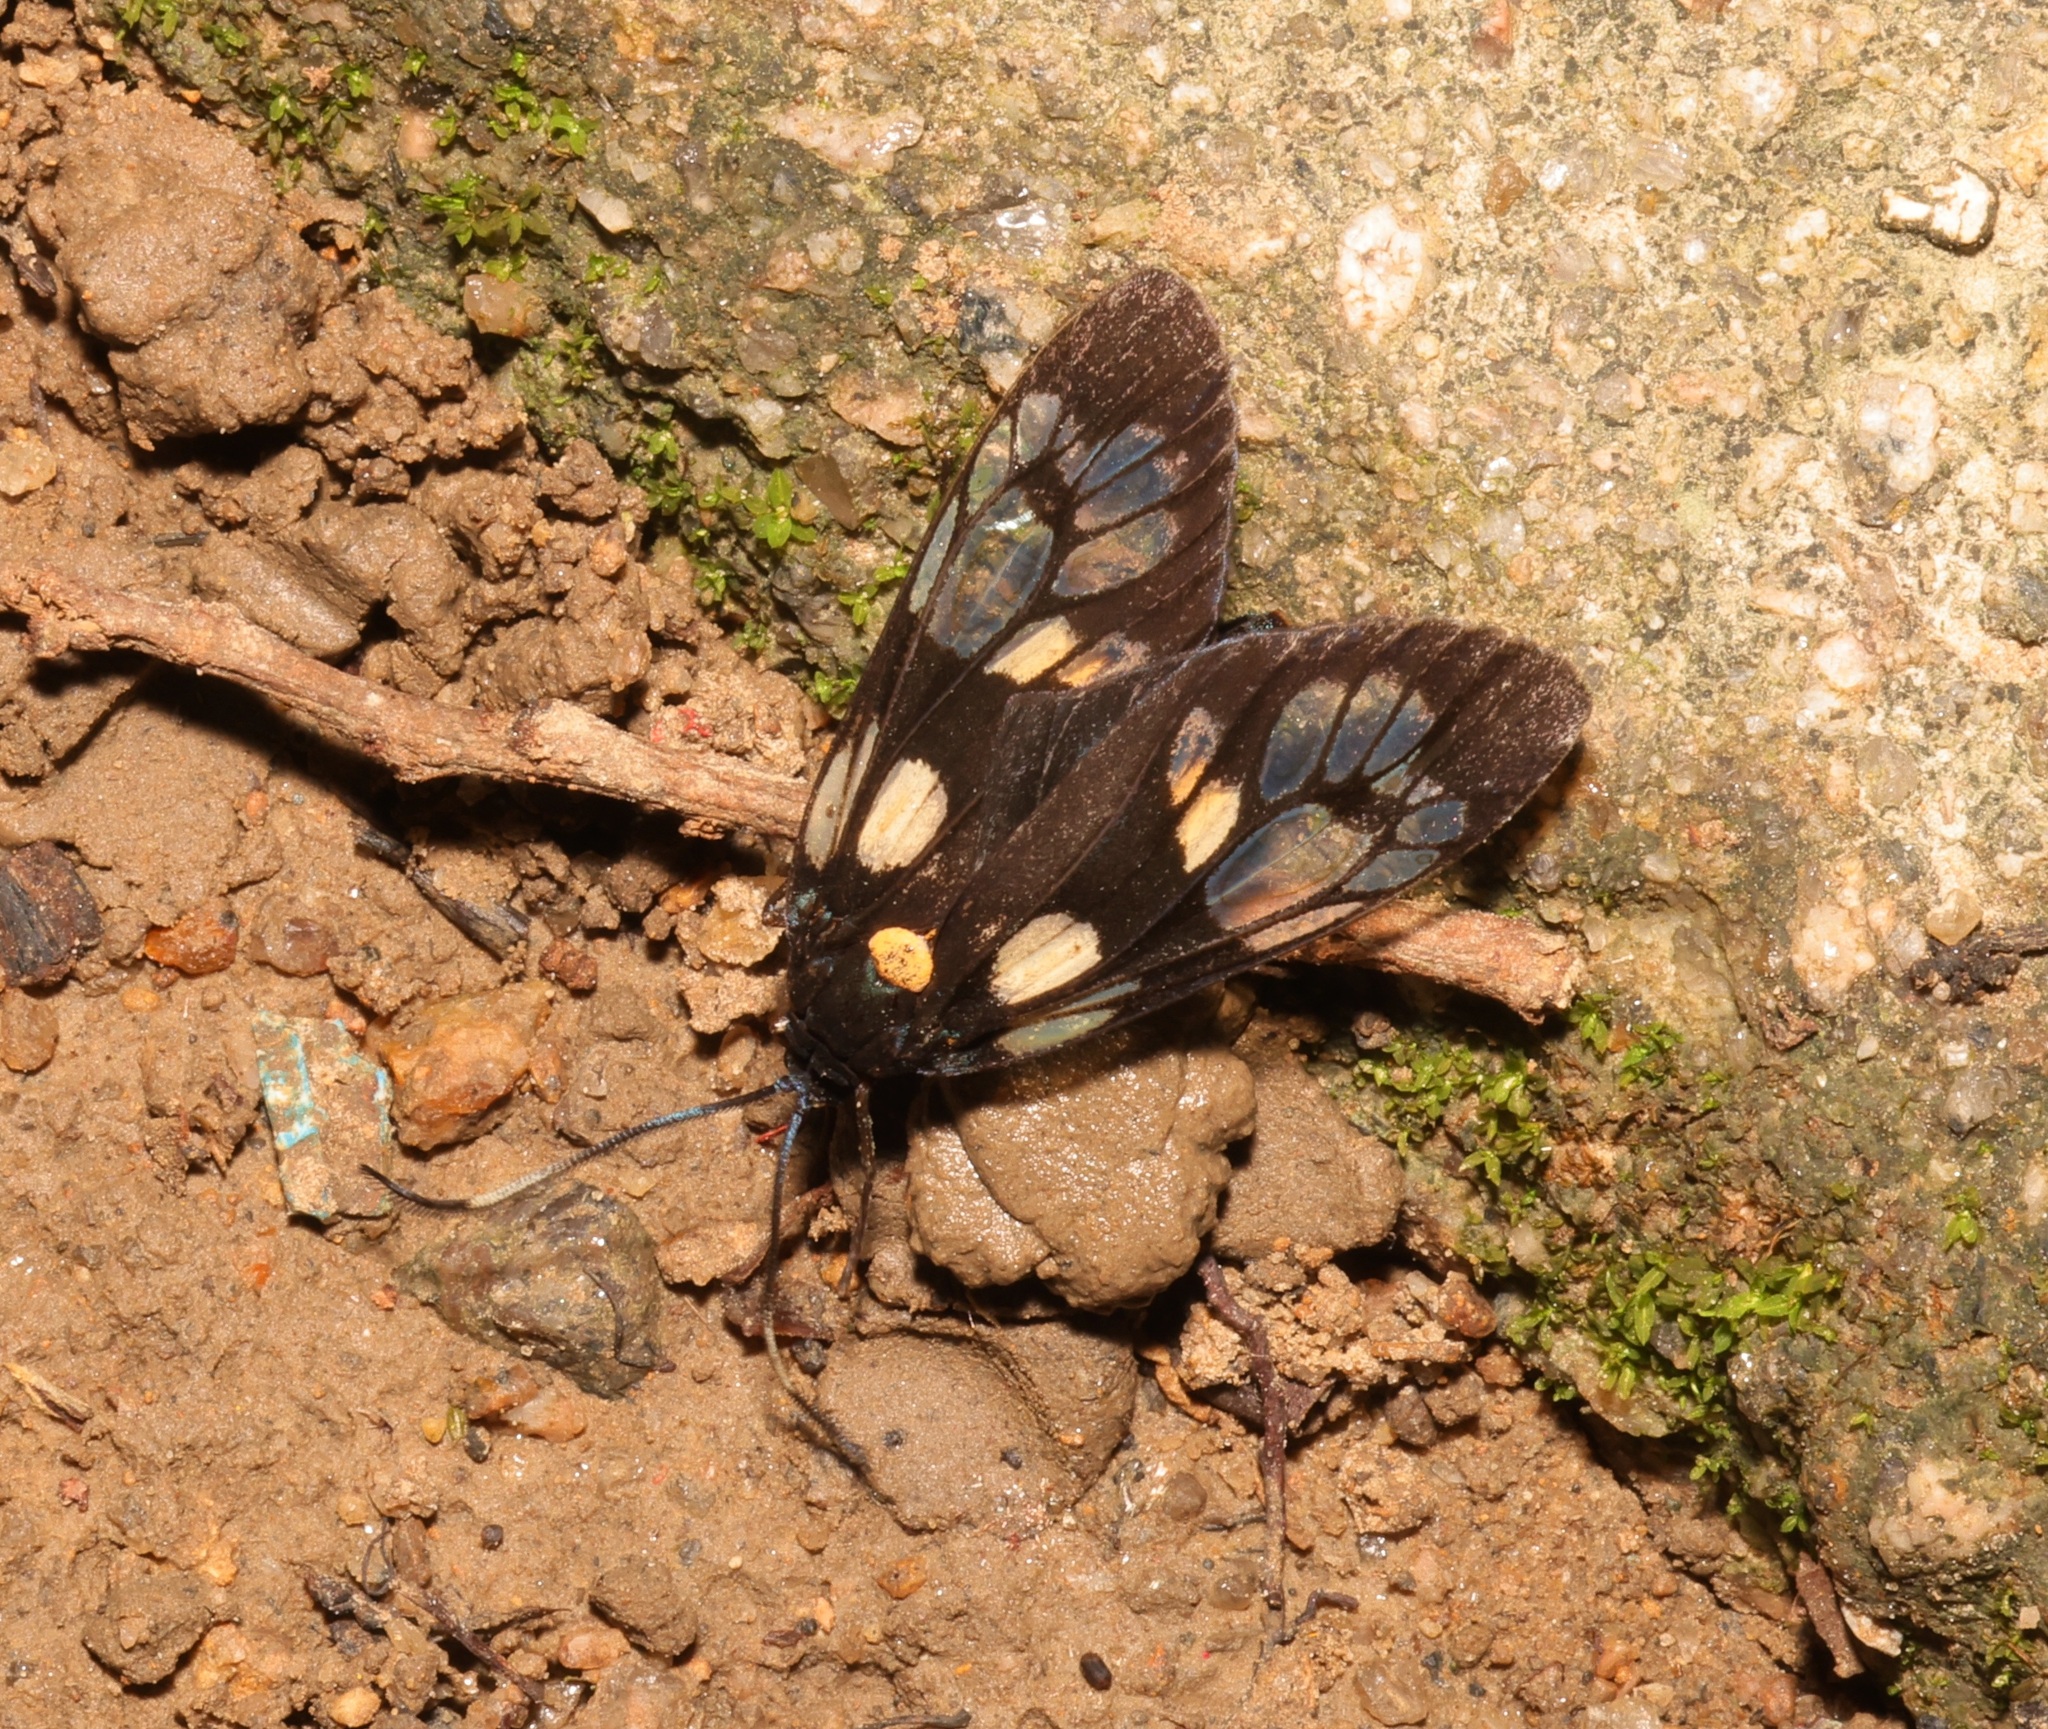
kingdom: Animalia
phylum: Arthropoda
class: Insecta
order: Lepidoptera
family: Zygaenidae
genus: Trypanophora
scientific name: Trypanophora semihyalina
